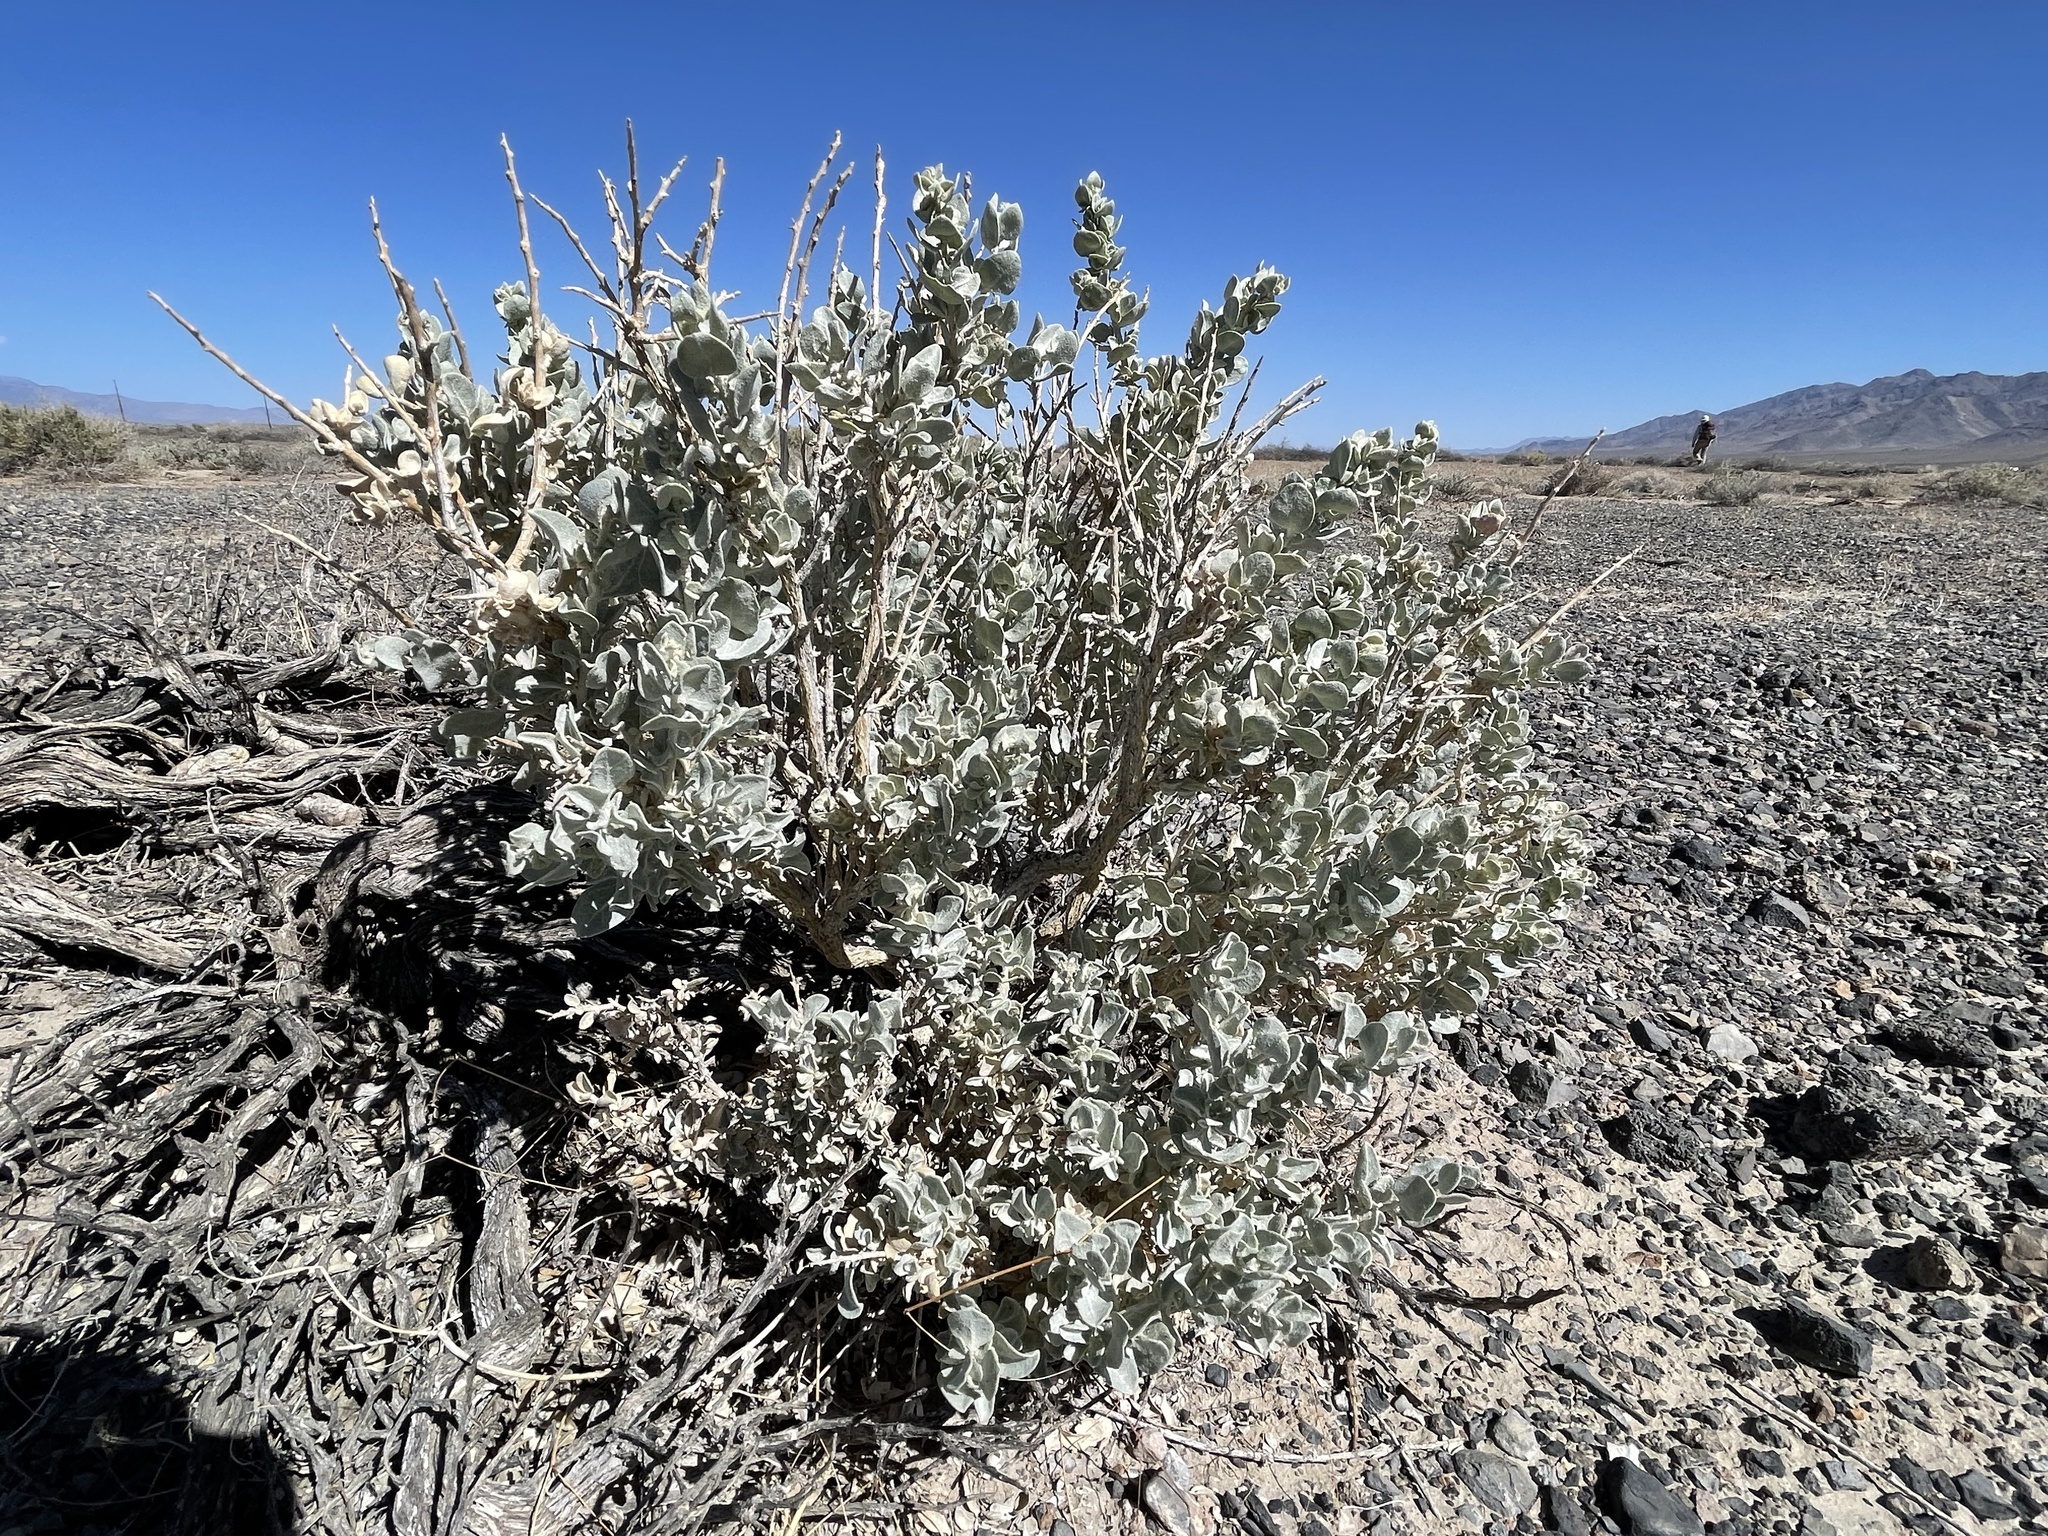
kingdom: Plantae
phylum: Tracheophyta
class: Magnoliopsida
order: Caryophyllales
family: Amaranthaceae
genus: Atriplex
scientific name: Atriplex confertifolia
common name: Shadscale
